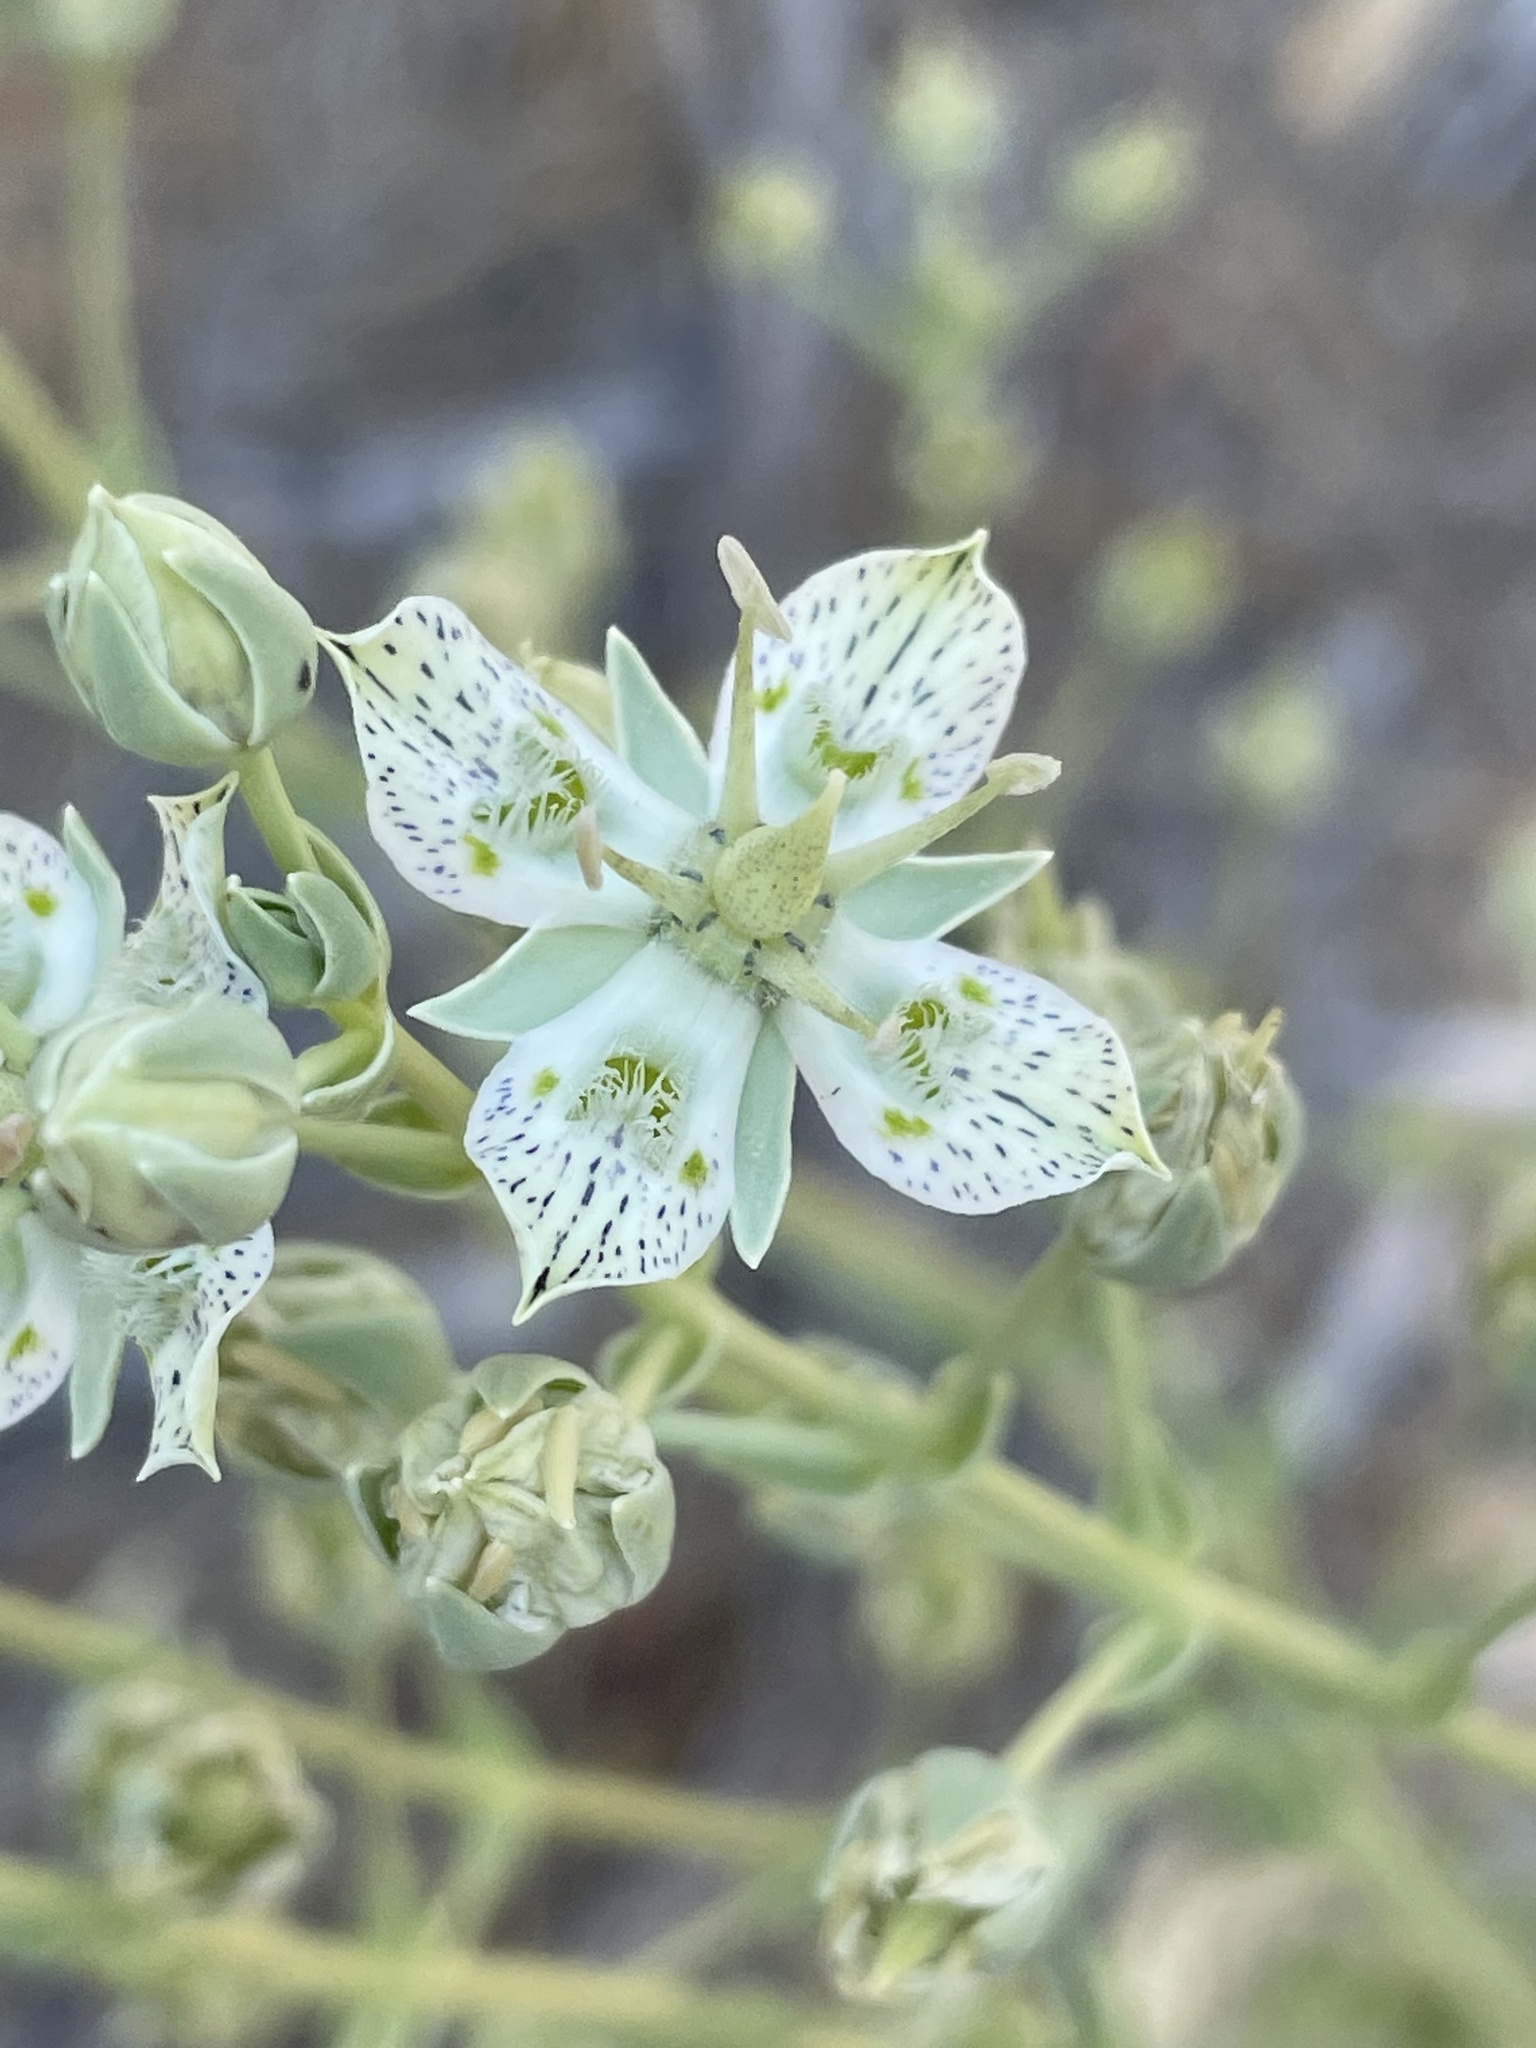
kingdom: Plantae
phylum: Tracheophyta
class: Magnoliopsida
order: Gentianales
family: Gentianaceae
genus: Frasera
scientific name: Frasera parryi
